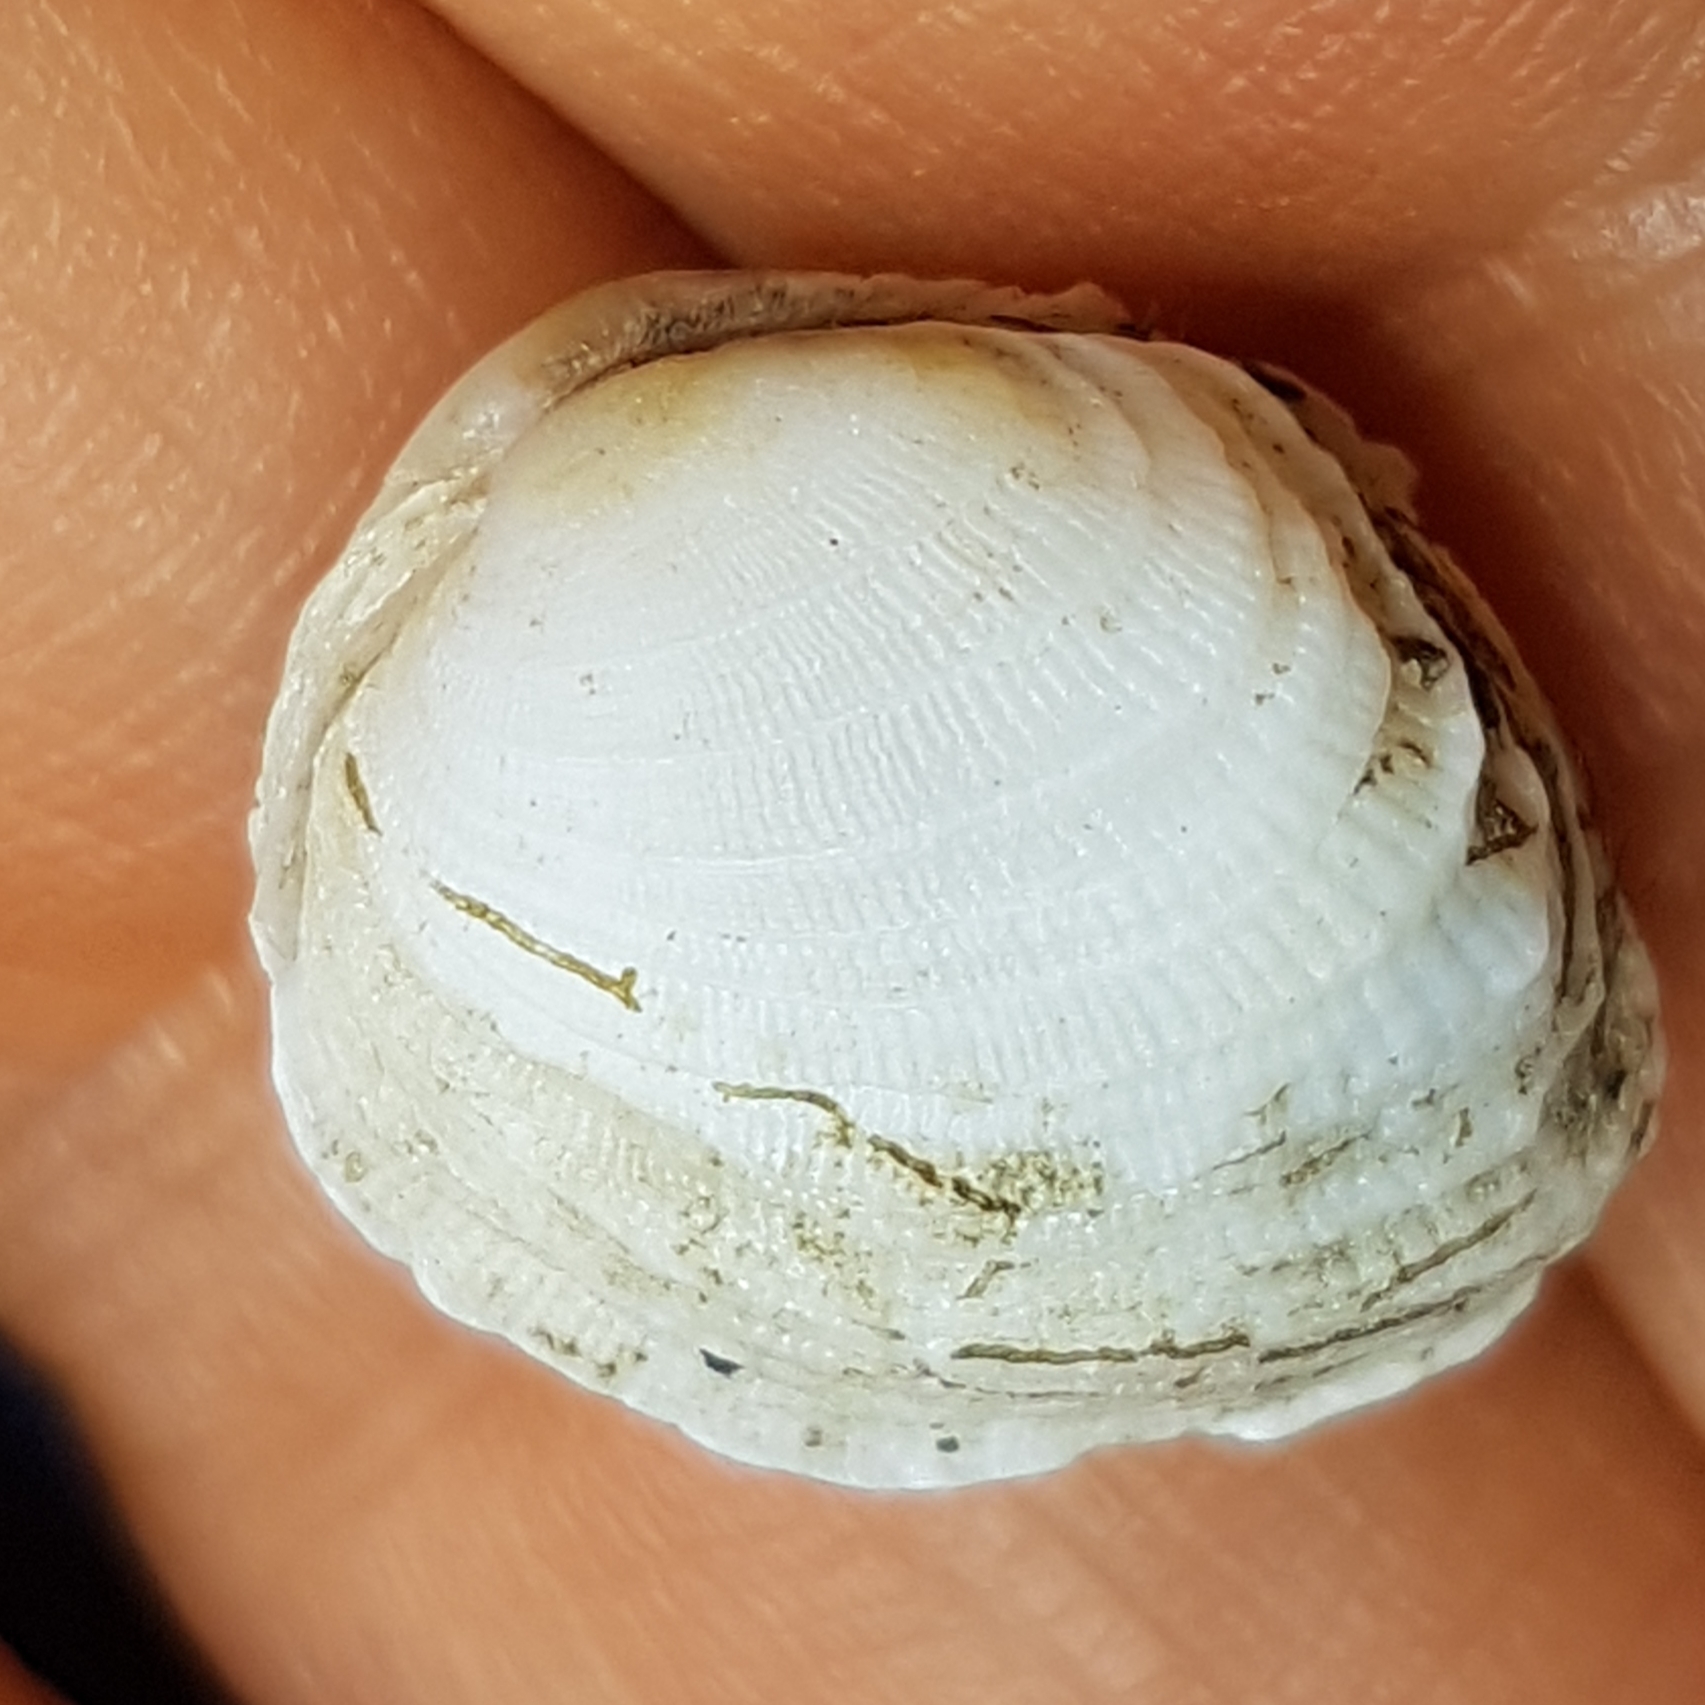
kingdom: Animalia
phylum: Mollusca
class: Bivalvia
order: Venerida
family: Veneridae
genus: Irus
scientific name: Irus irus
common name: Irus clam
